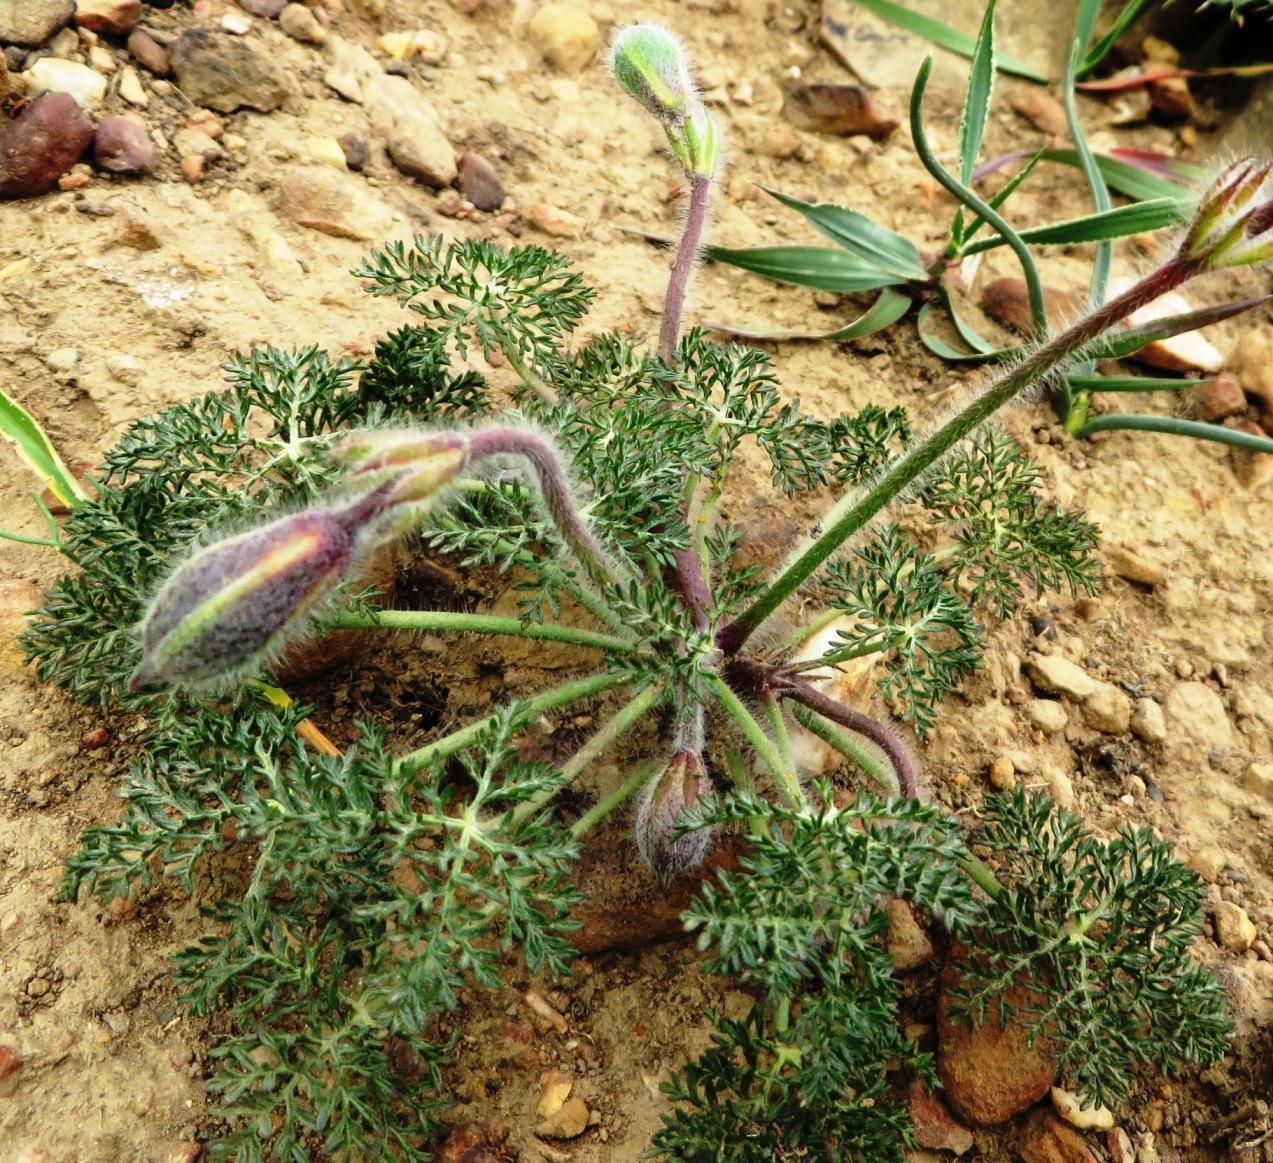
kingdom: Plantae
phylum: Tracheophyta
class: Magnoliopsida
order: Geraniales
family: Geraniaceae
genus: Monsonia
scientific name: Monsonia speciosa
